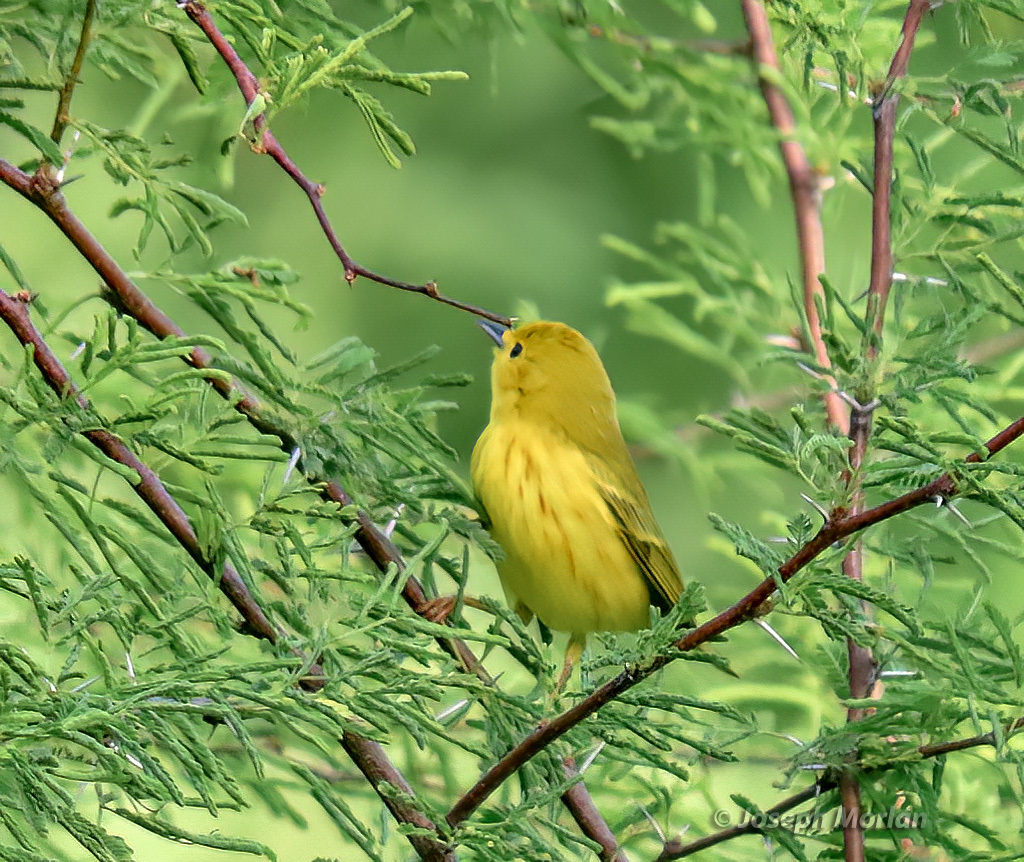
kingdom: Animalia
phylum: Chordata
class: Aves
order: Passeriformes
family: Parulidae
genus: Setophaga
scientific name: Setophaga petechia
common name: Yellow warbler
